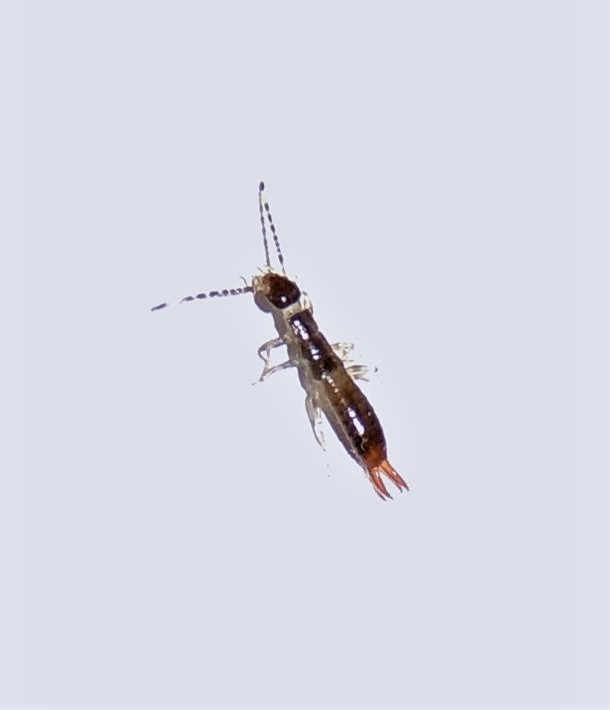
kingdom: Animalia
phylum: Arthropoda
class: Insecta
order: Dermaptera
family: Anisolabididae
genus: Euborellia
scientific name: Euborellia annulipes
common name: Ringlegged earwig
